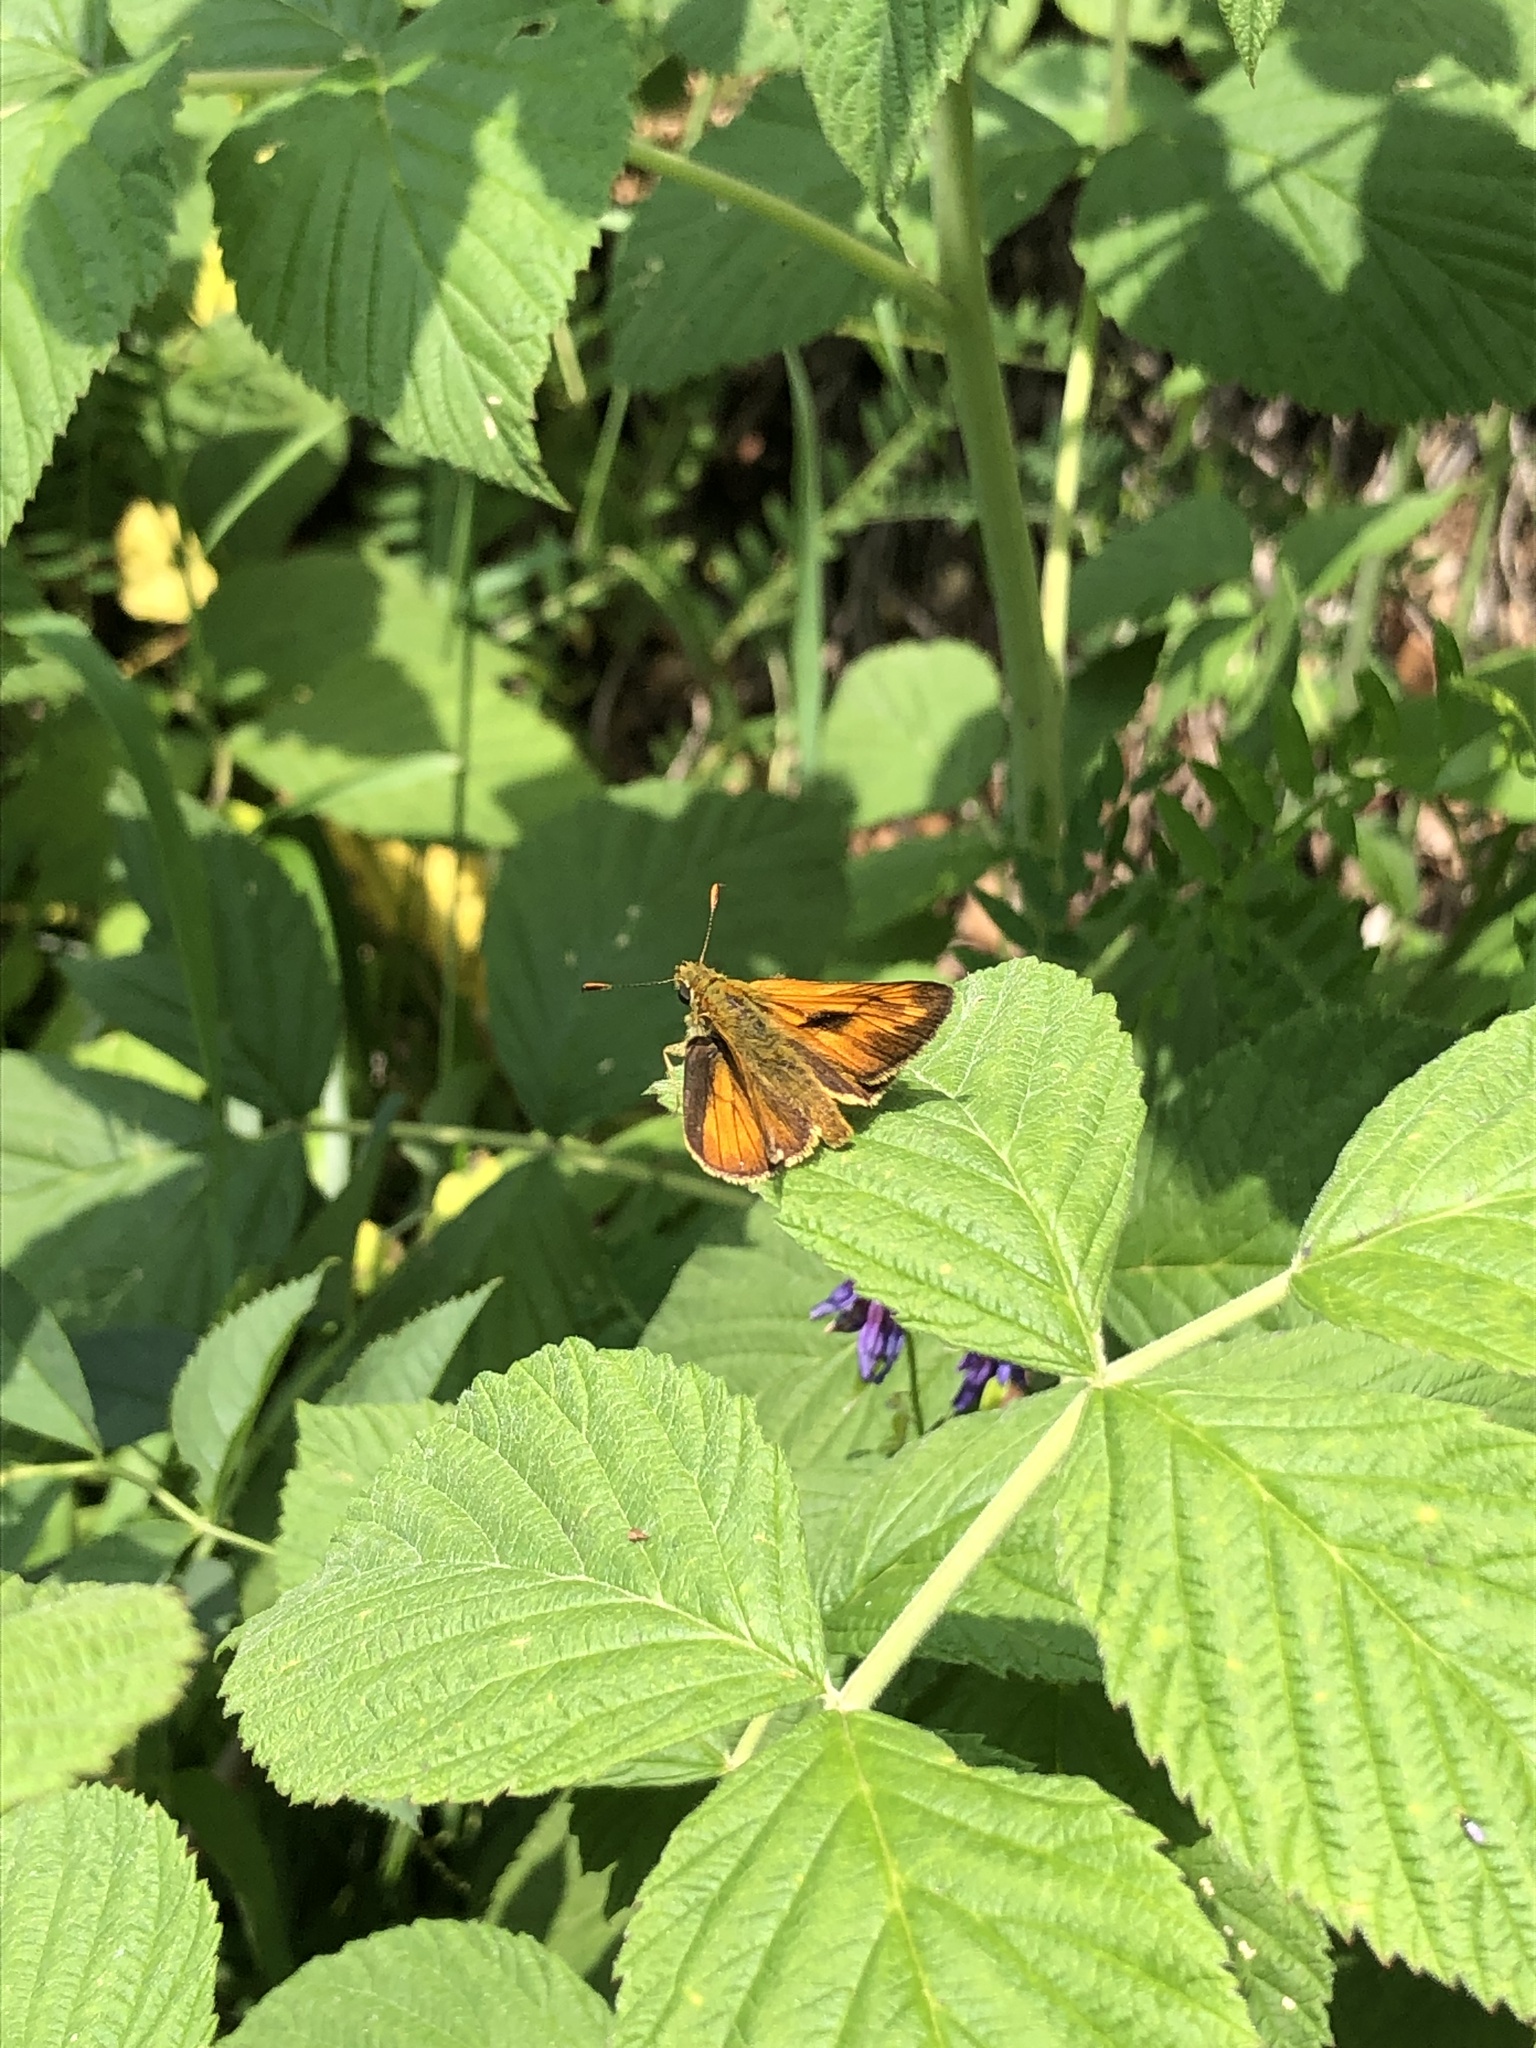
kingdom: Animalia
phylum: Arthropoda
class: Insecta
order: Lepidoptera
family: Hesperiidae
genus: Ochlodes
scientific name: Ochlodes venata
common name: Large skipper
